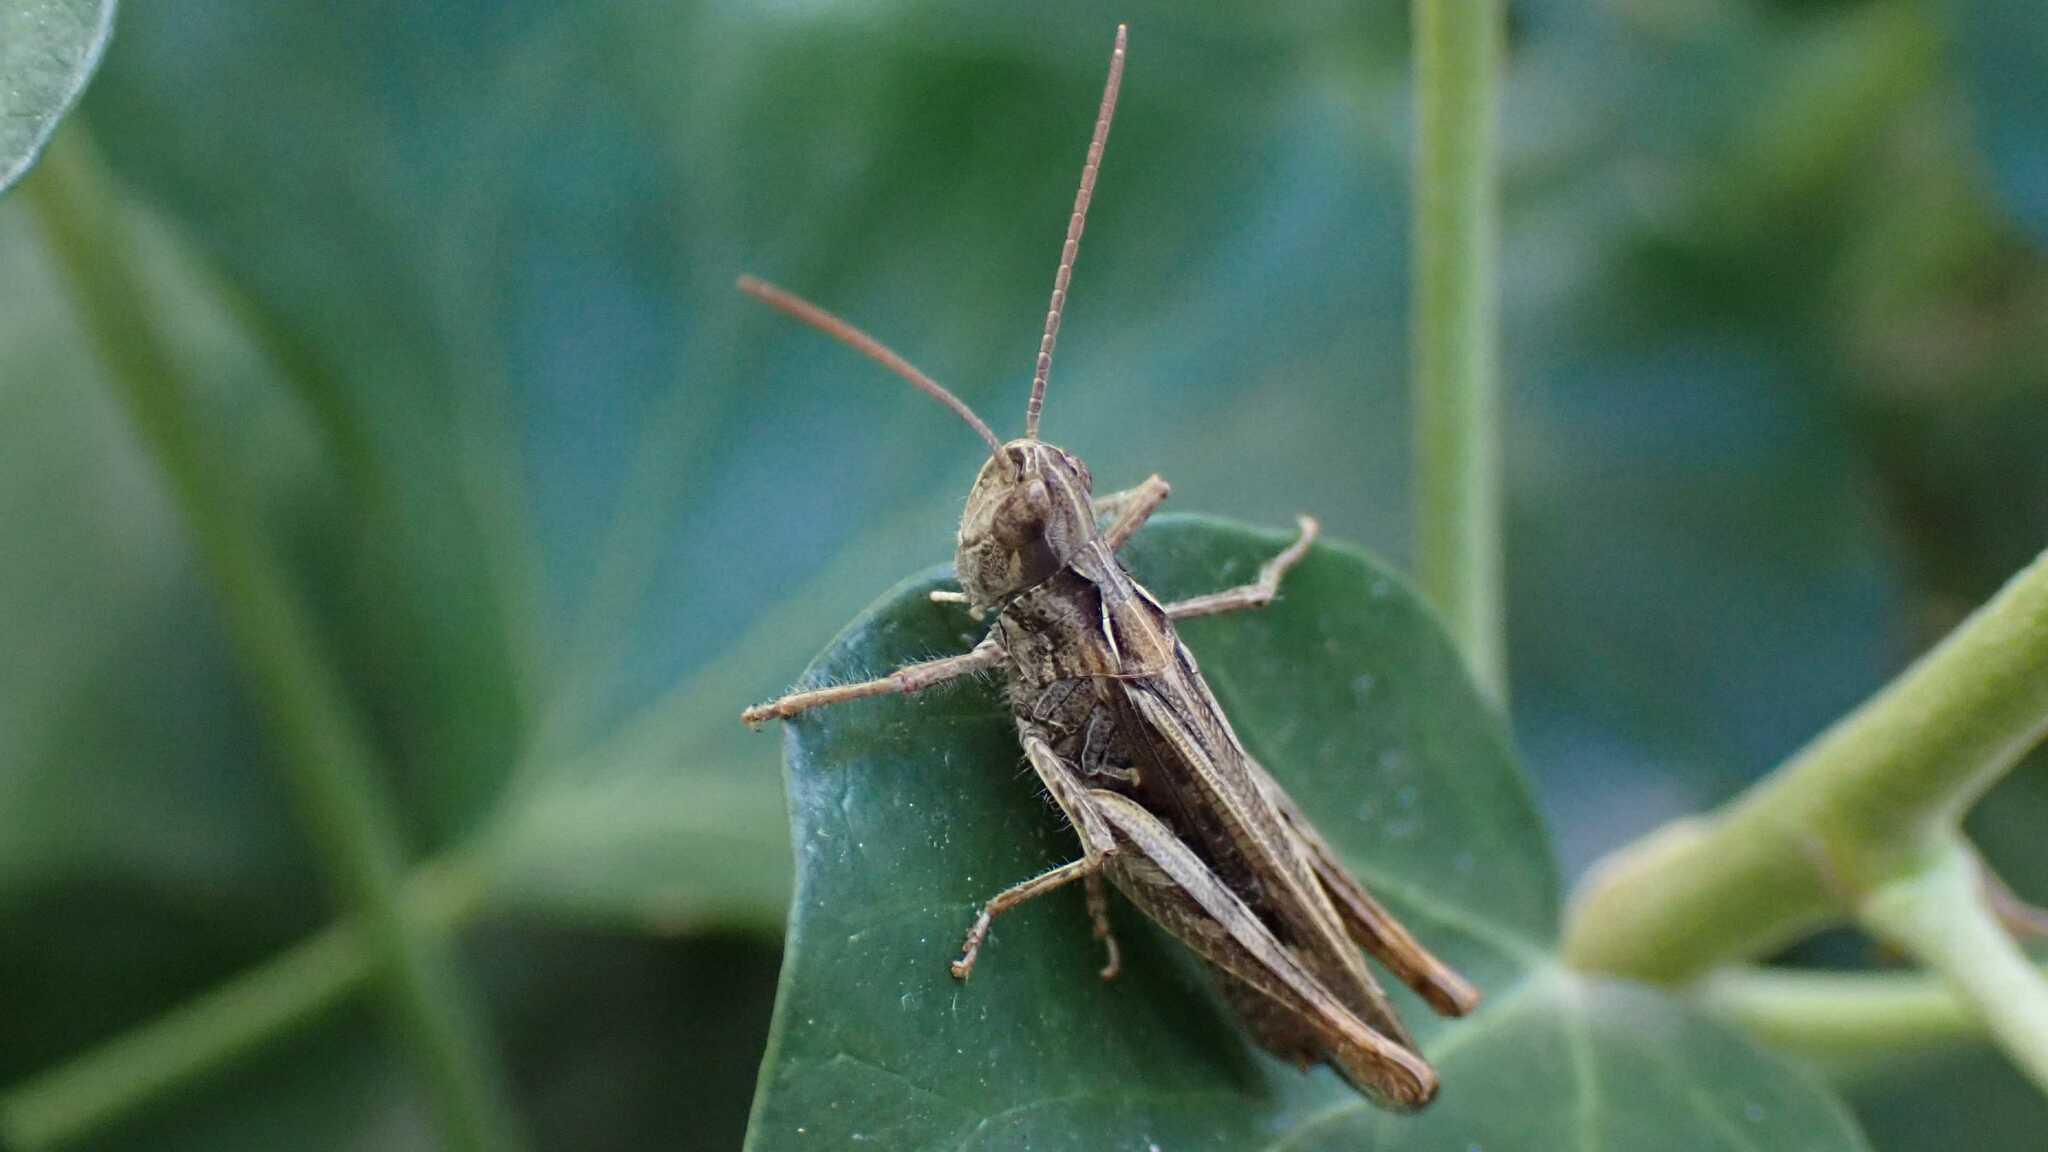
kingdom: Animalia
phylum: Arthropoda
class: Insecta
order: Orthoptera
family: Acrididae
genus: Chorthippus
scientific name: Chorthippus brunneus
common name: Field grasshopper
